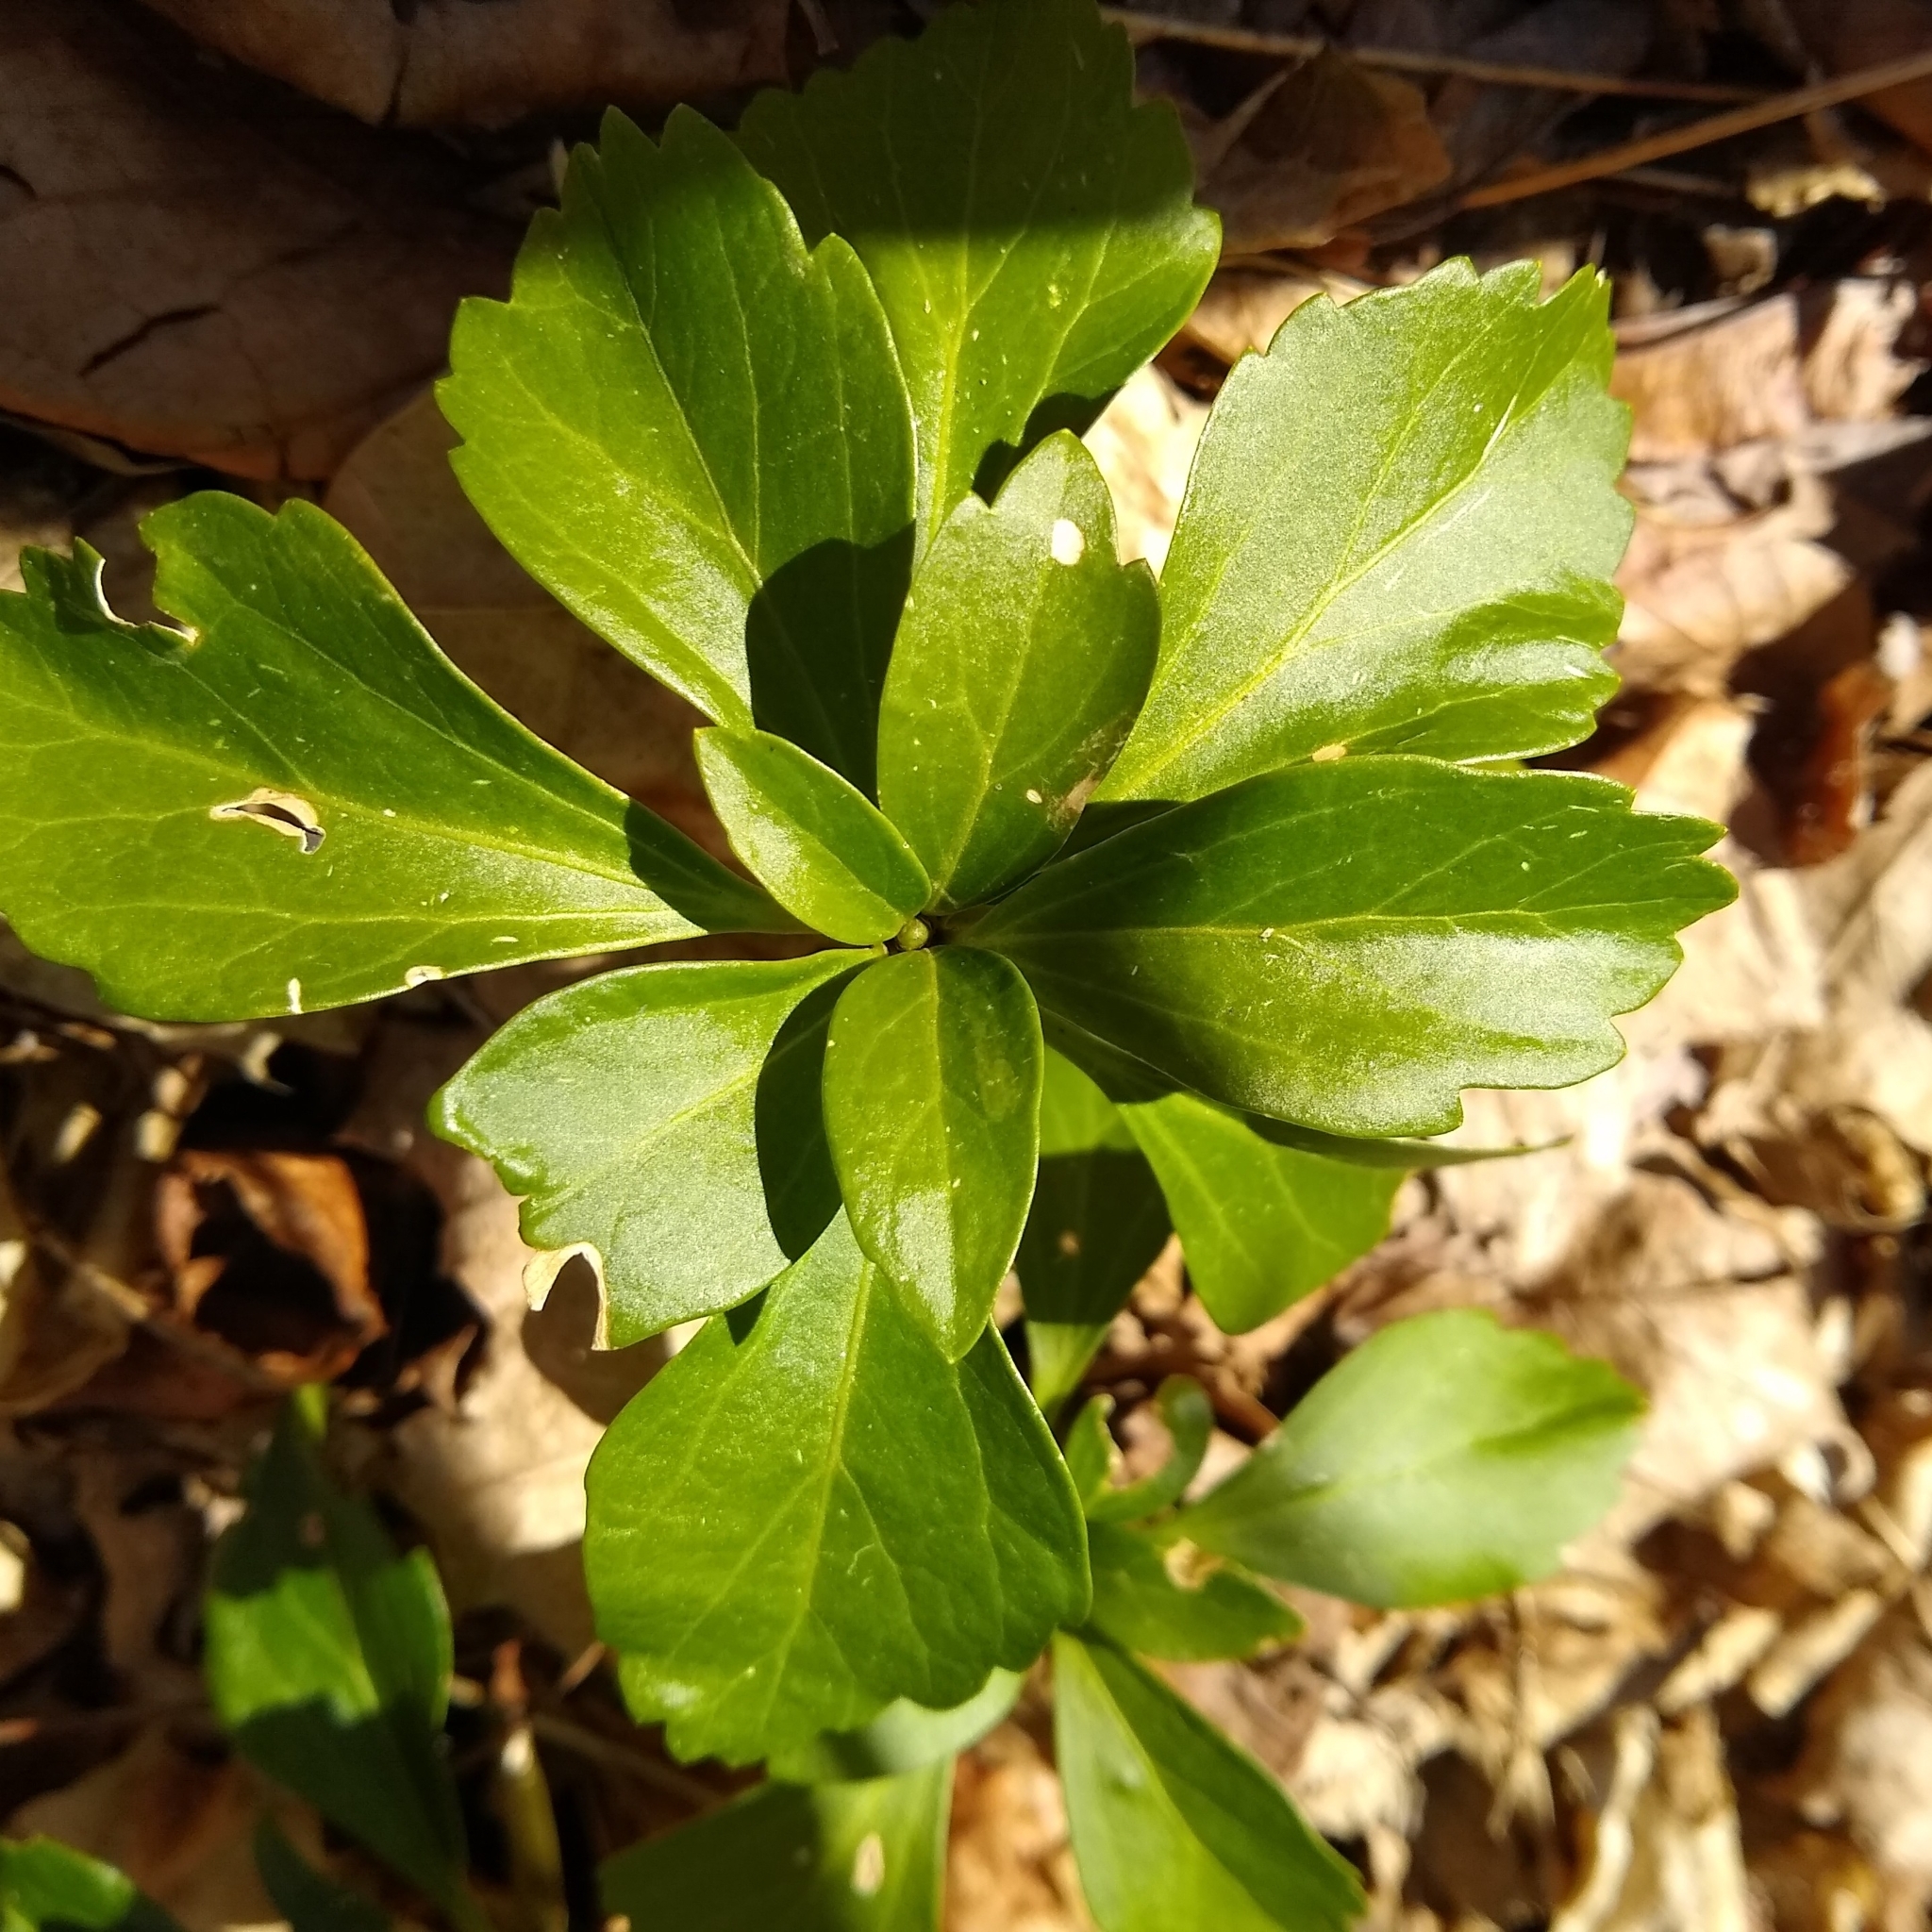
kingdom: Plantae
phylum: Tracheophyta
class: Magnoliopsida
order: Buxales
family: Buxaceae
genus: Pachysandra
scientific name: Pachysandra terminalis
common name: Japanese pachysandra
